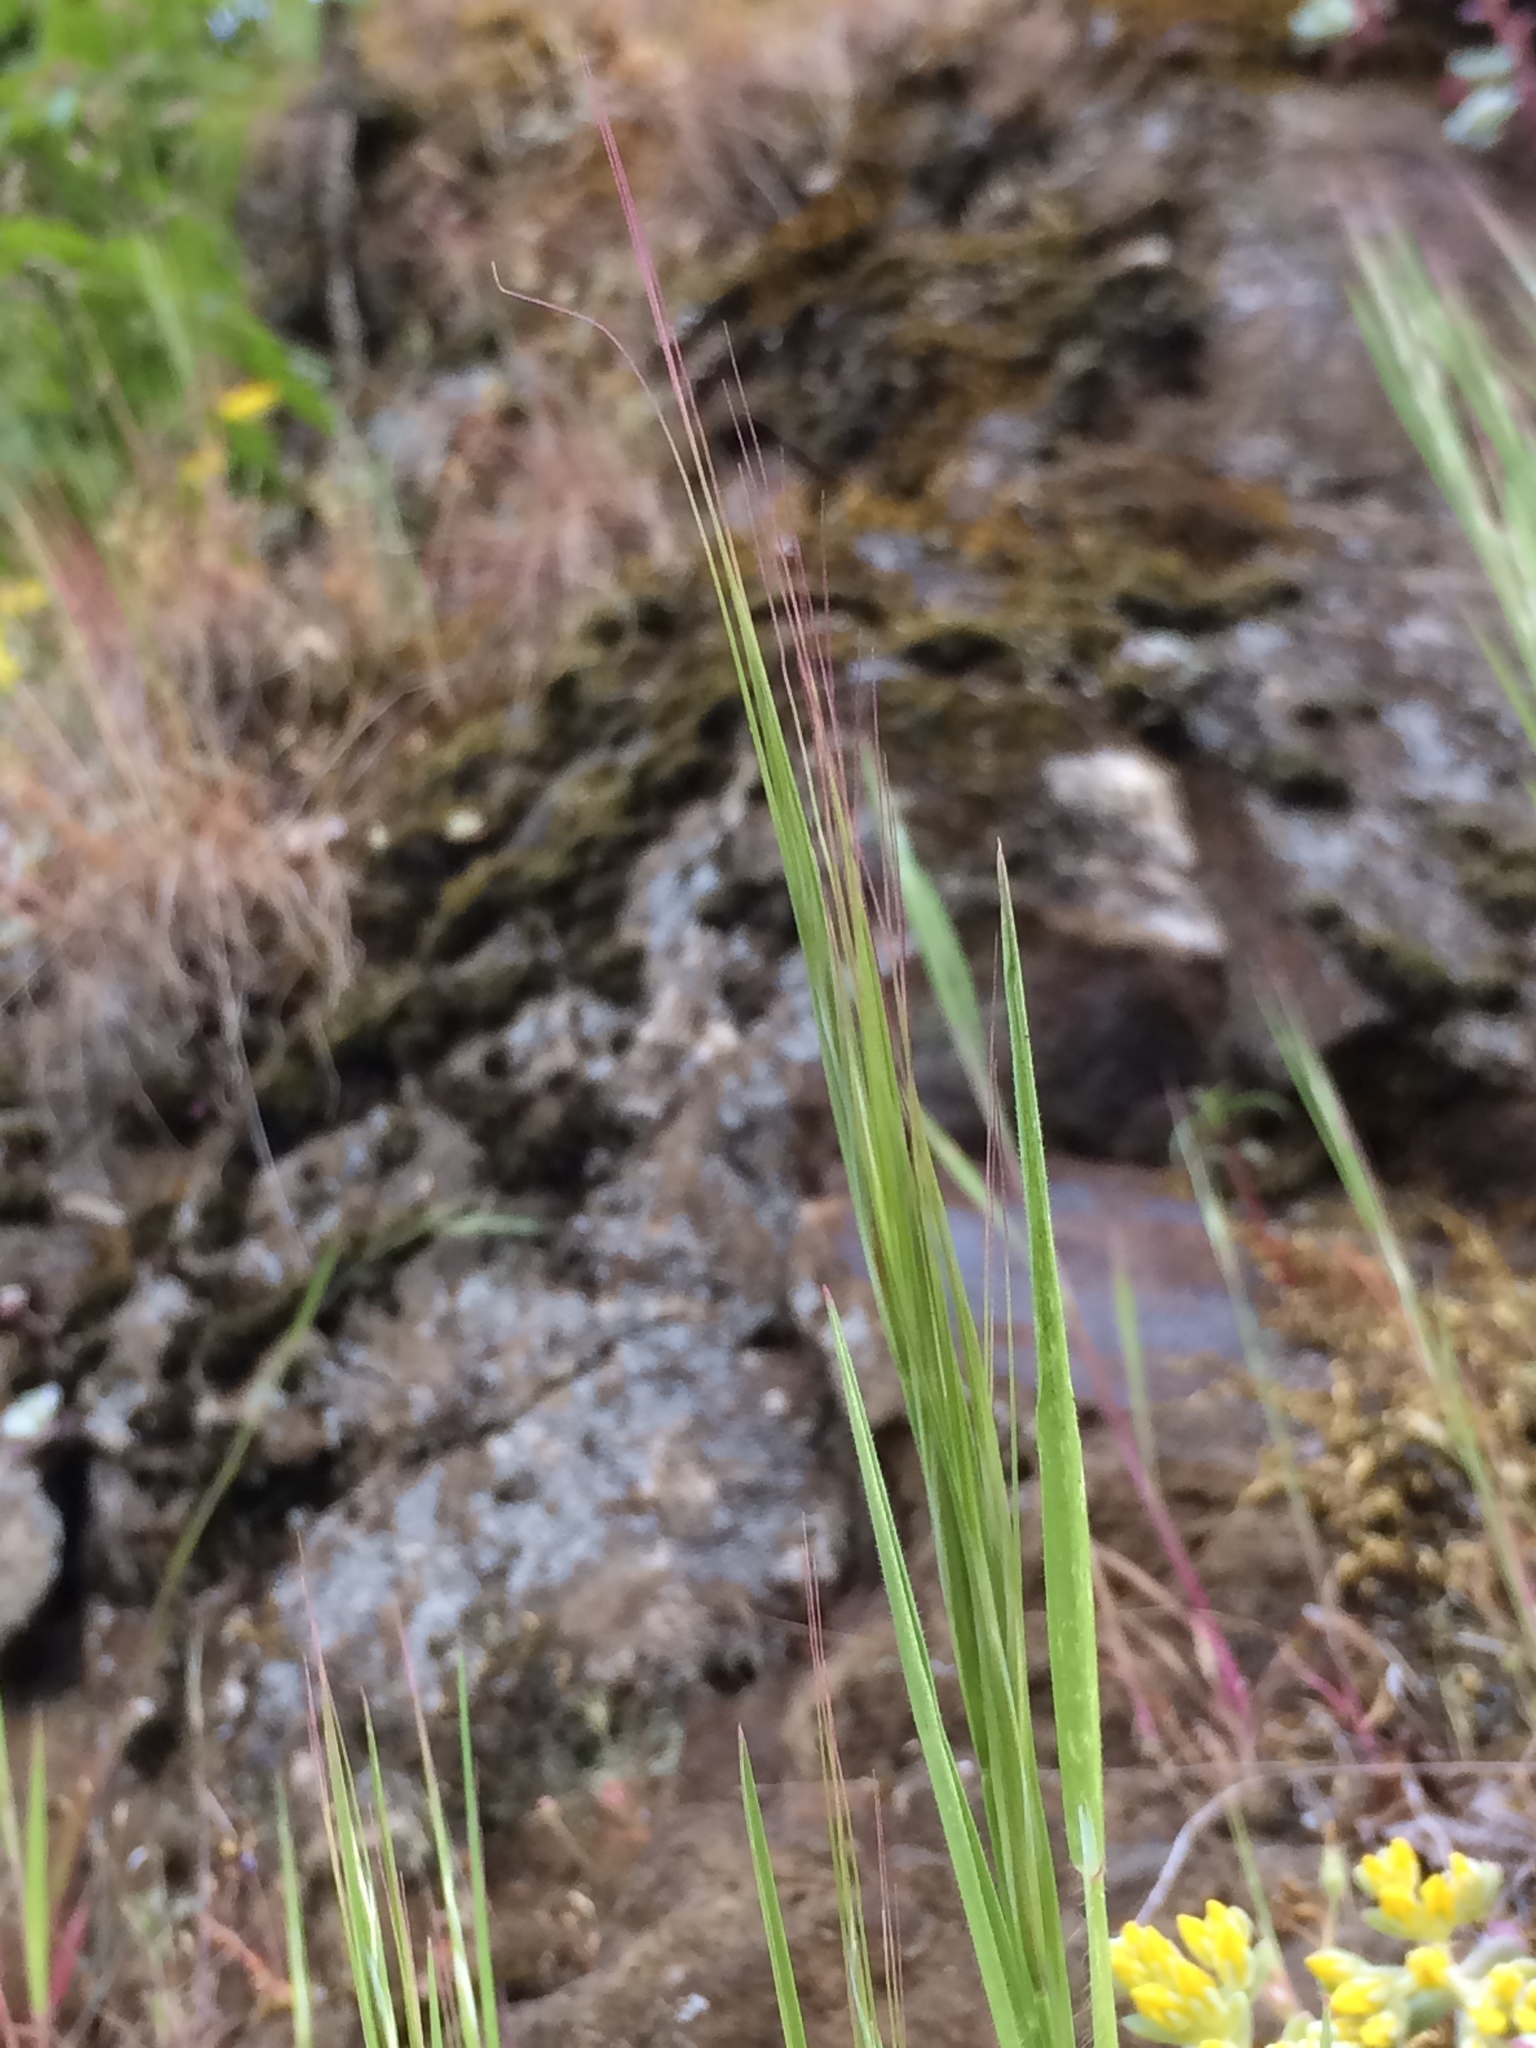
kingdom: Plantae
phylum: Tracheophyta
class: Liliopsida
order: Asparagales
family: Asparagaceae
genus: Triteleia
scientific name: Triteleia grandiflora
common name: Wild hyacinth
